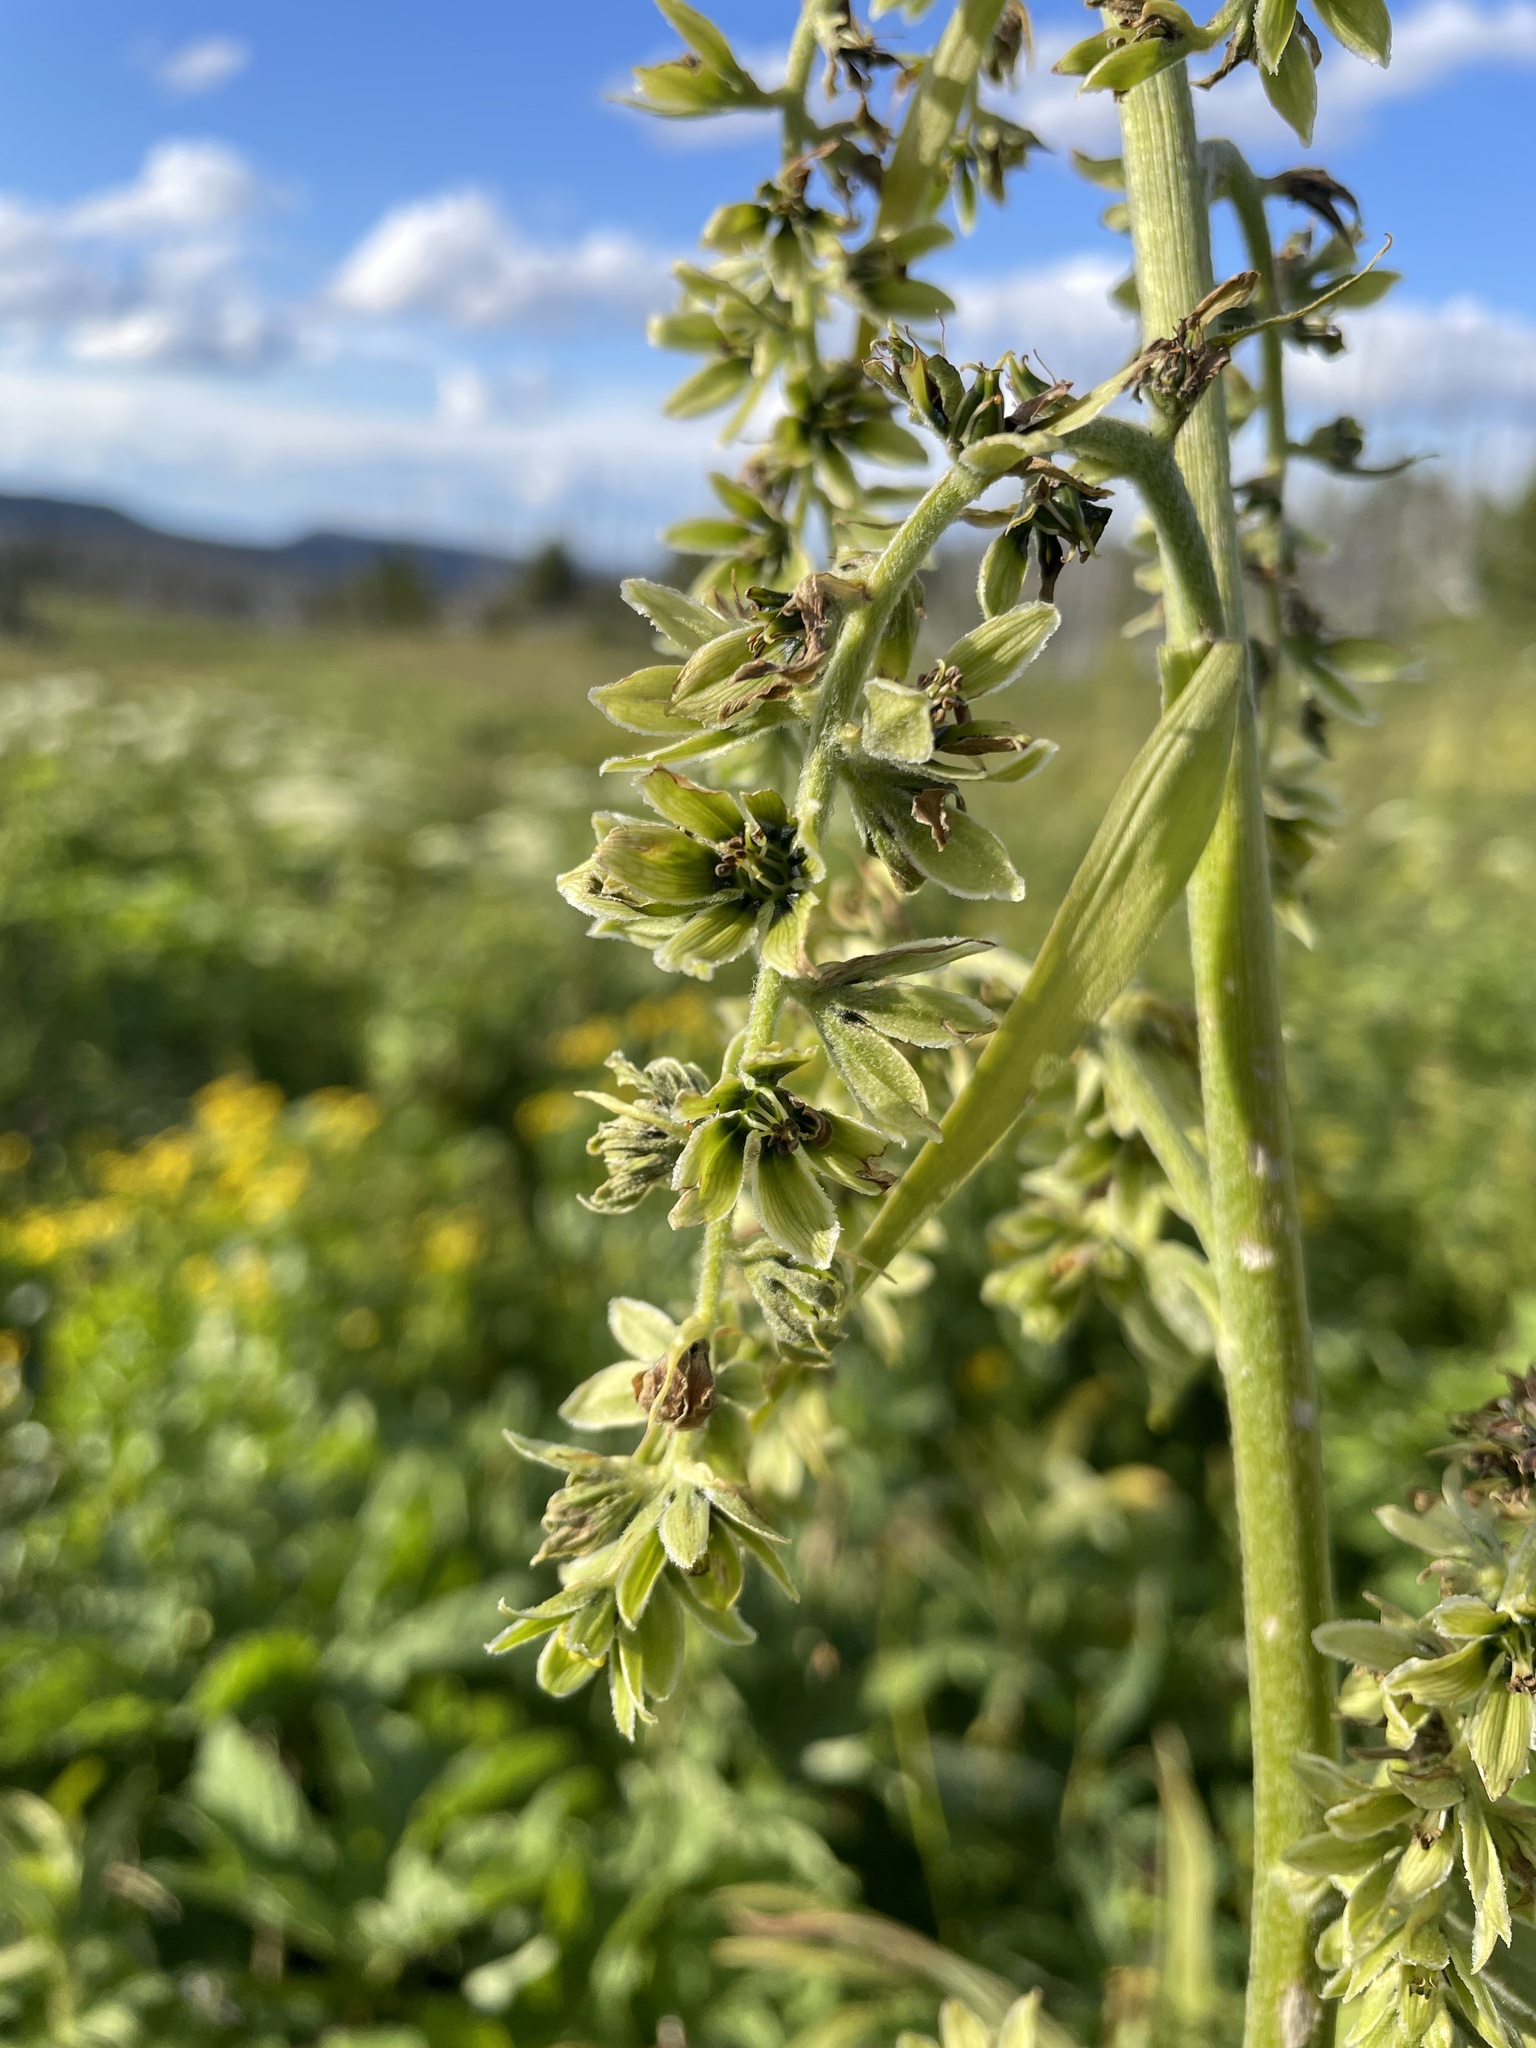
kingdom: Plantae
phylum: Tracheophyta
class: Liliopsida
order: Liliales
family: Melanthiaceae
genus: Veratrum
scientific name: Veratrum viride
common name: American false hellebore
